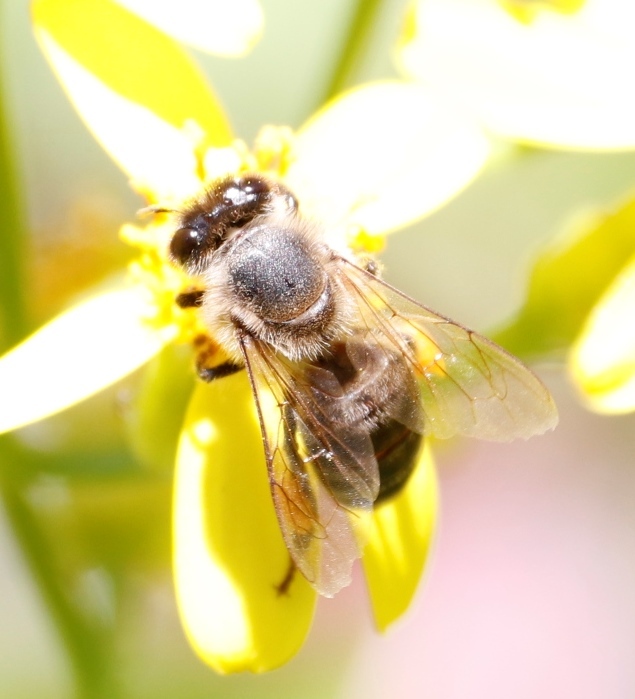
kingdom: Animalia
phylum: Arthropoda
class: Insecta
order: Hymenoptera
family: Apidae
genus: Apis
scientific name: Apis mellifera
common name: Honey bee
